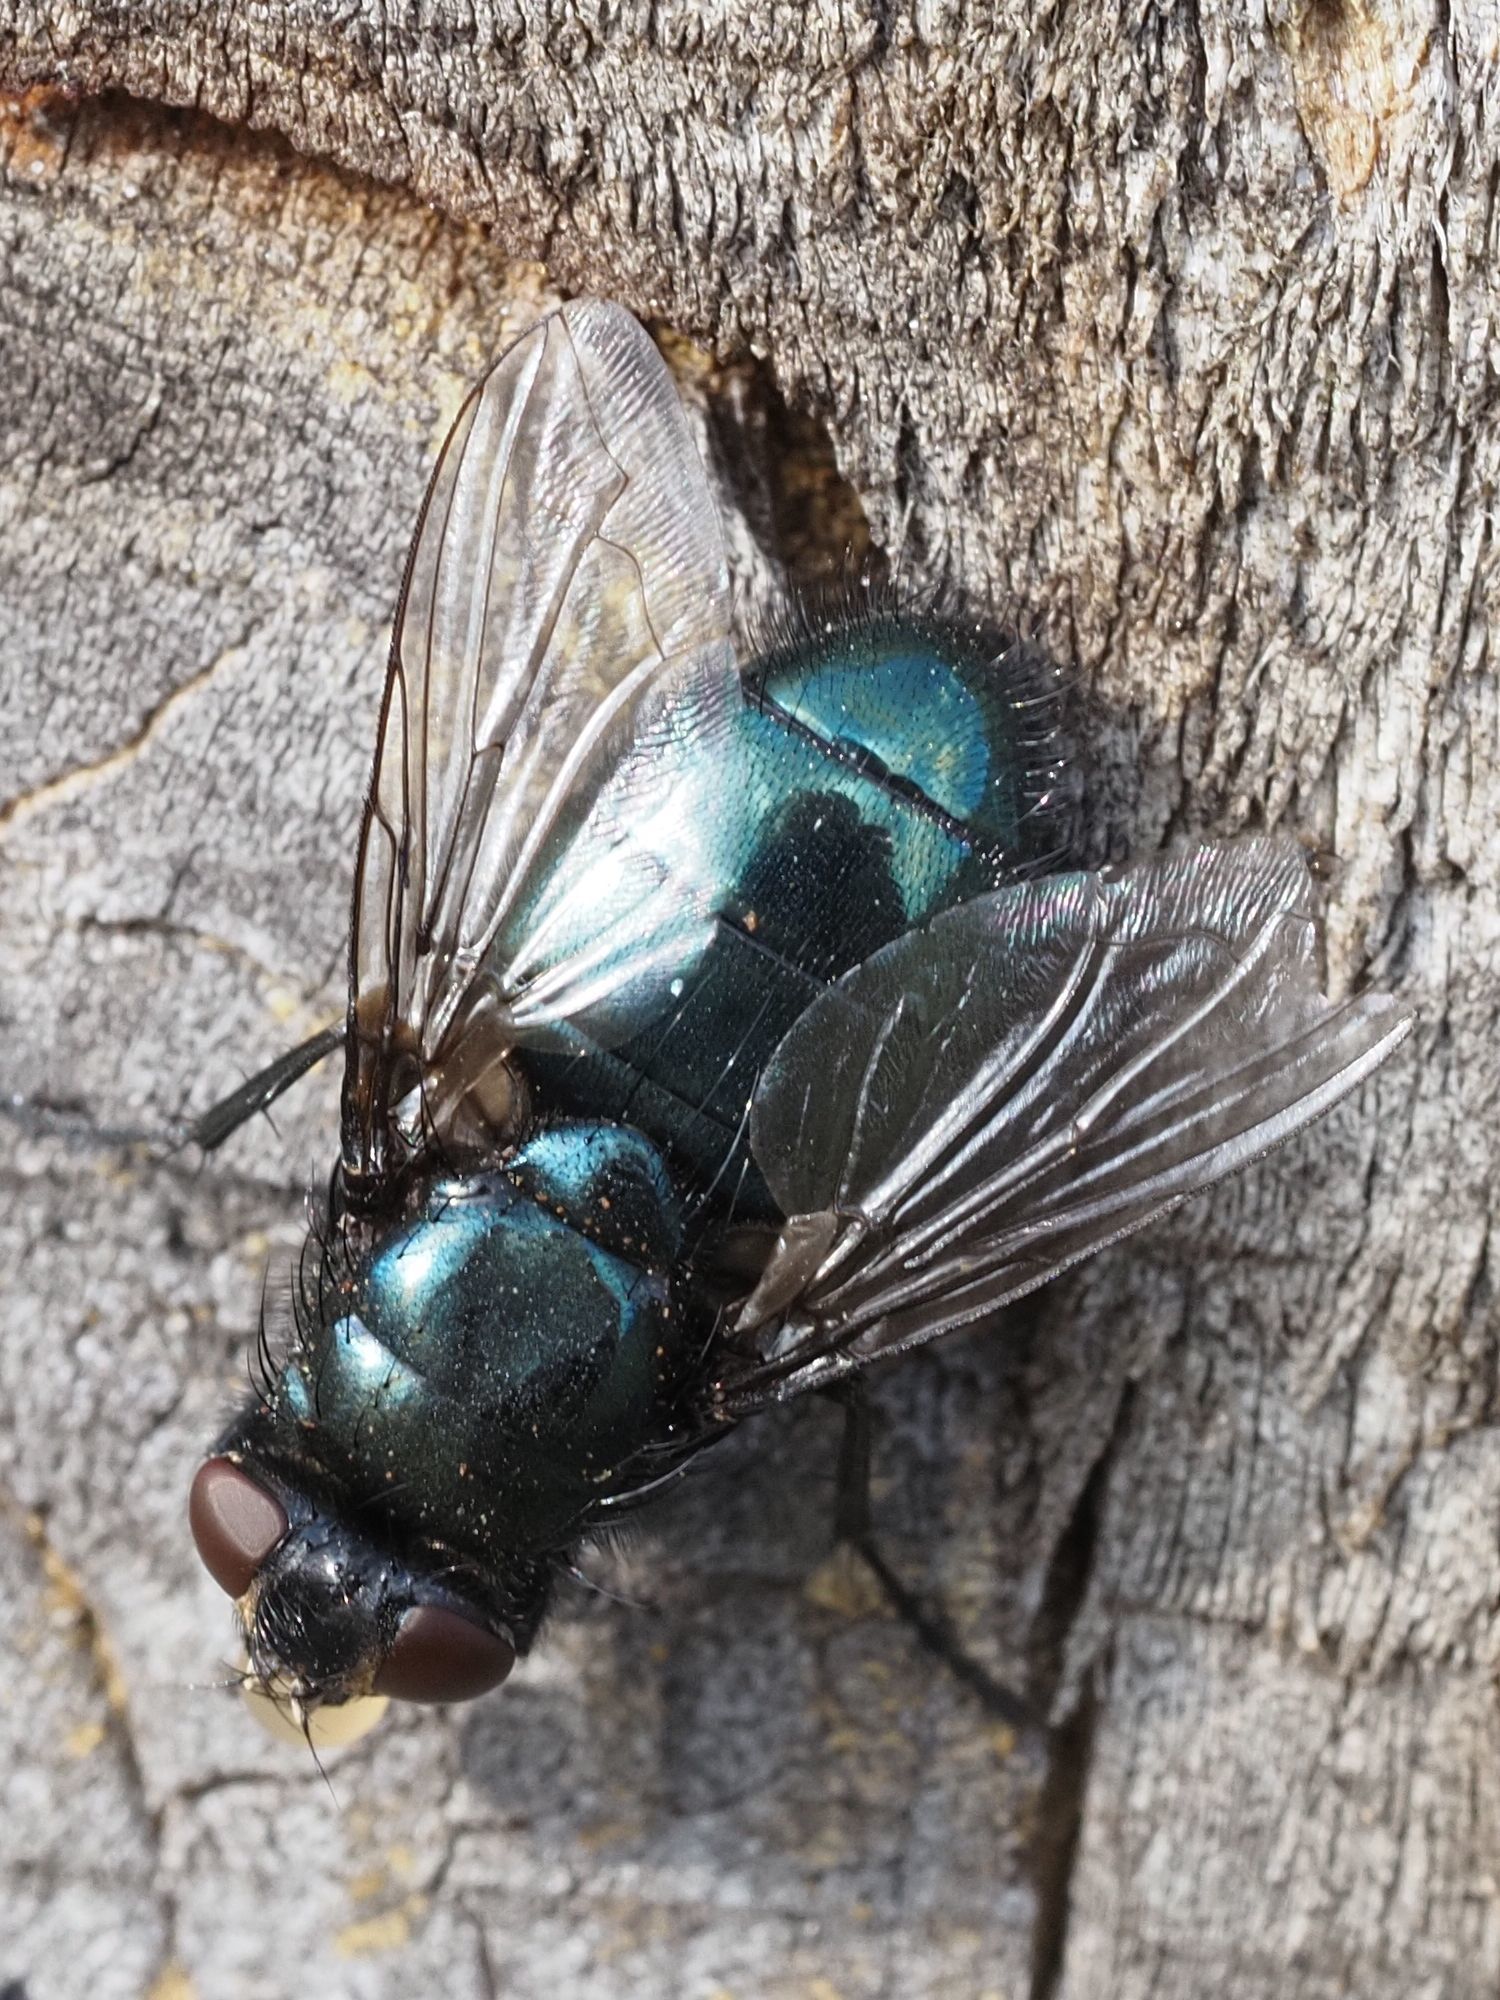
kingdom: Animalia
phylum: Arthropoda
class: Insecta
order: Diptera
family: Calliphoridae
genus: Protophormia
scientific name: Protophormia terraenovae
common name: Blackbottle
